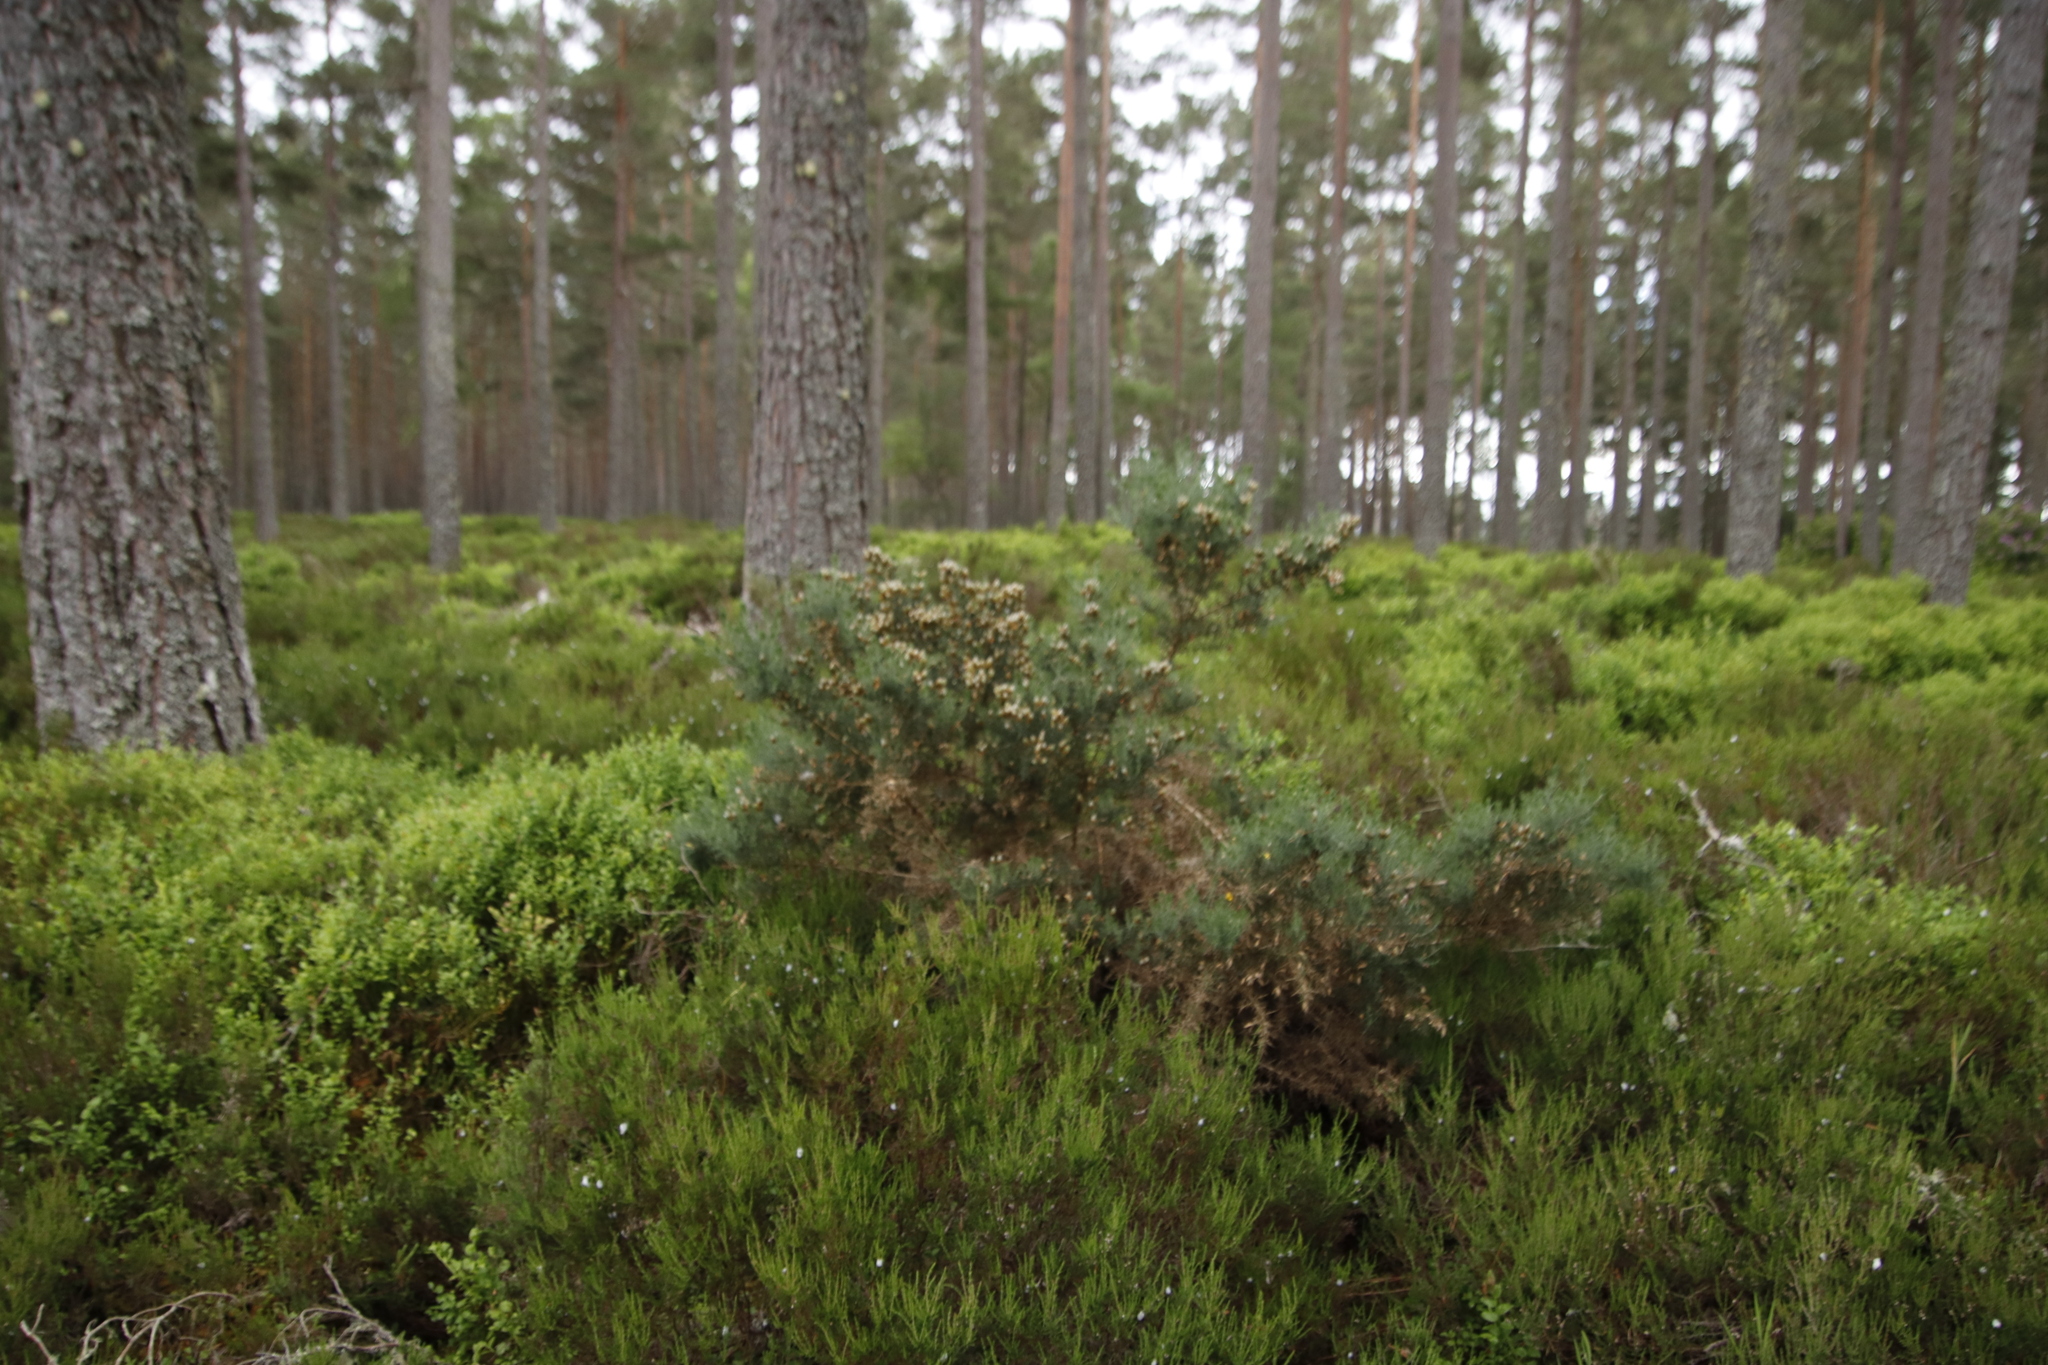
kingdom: Plantae
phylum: Tracheophyta
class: Magnoliopsida
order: Ericales
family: Ericaceae
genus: Calluna
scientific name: Calluna vulgaris
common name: Heather
